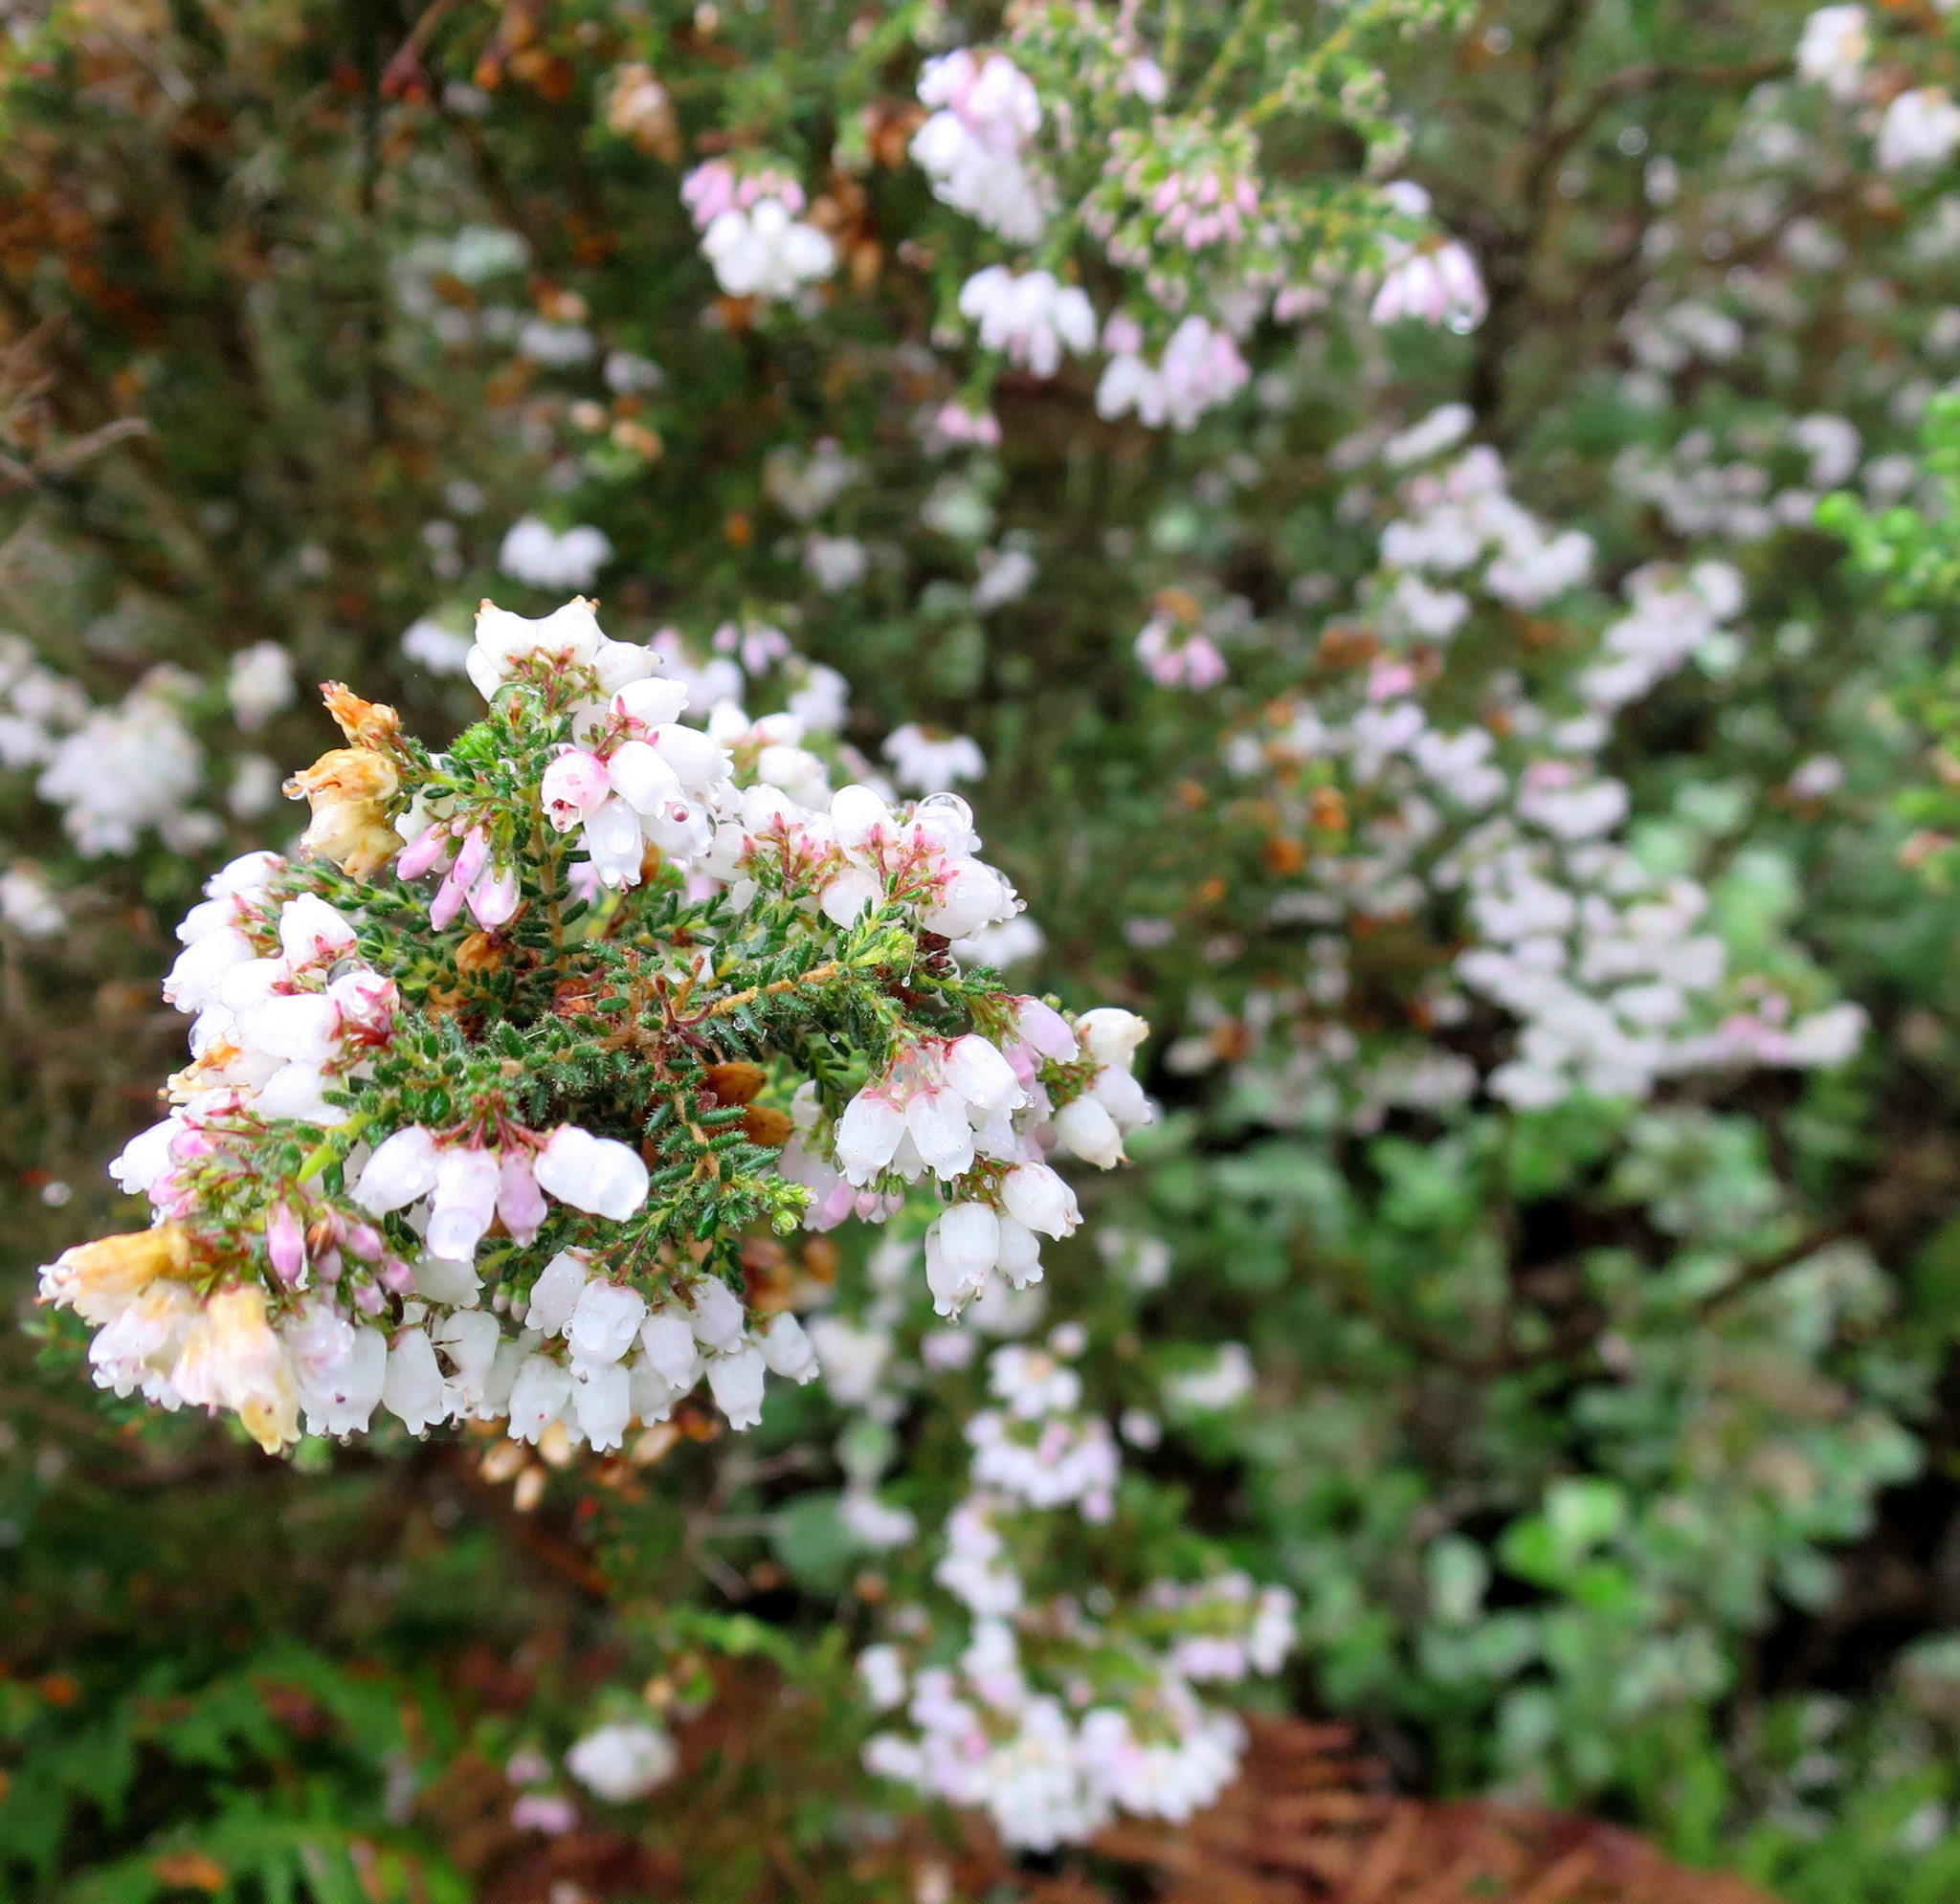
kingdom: Plantae
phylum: Tracheophyta
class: Magnoliopsida
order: Ericales
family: Ericaceae
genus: Erica
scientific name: Erica scabriuscula
